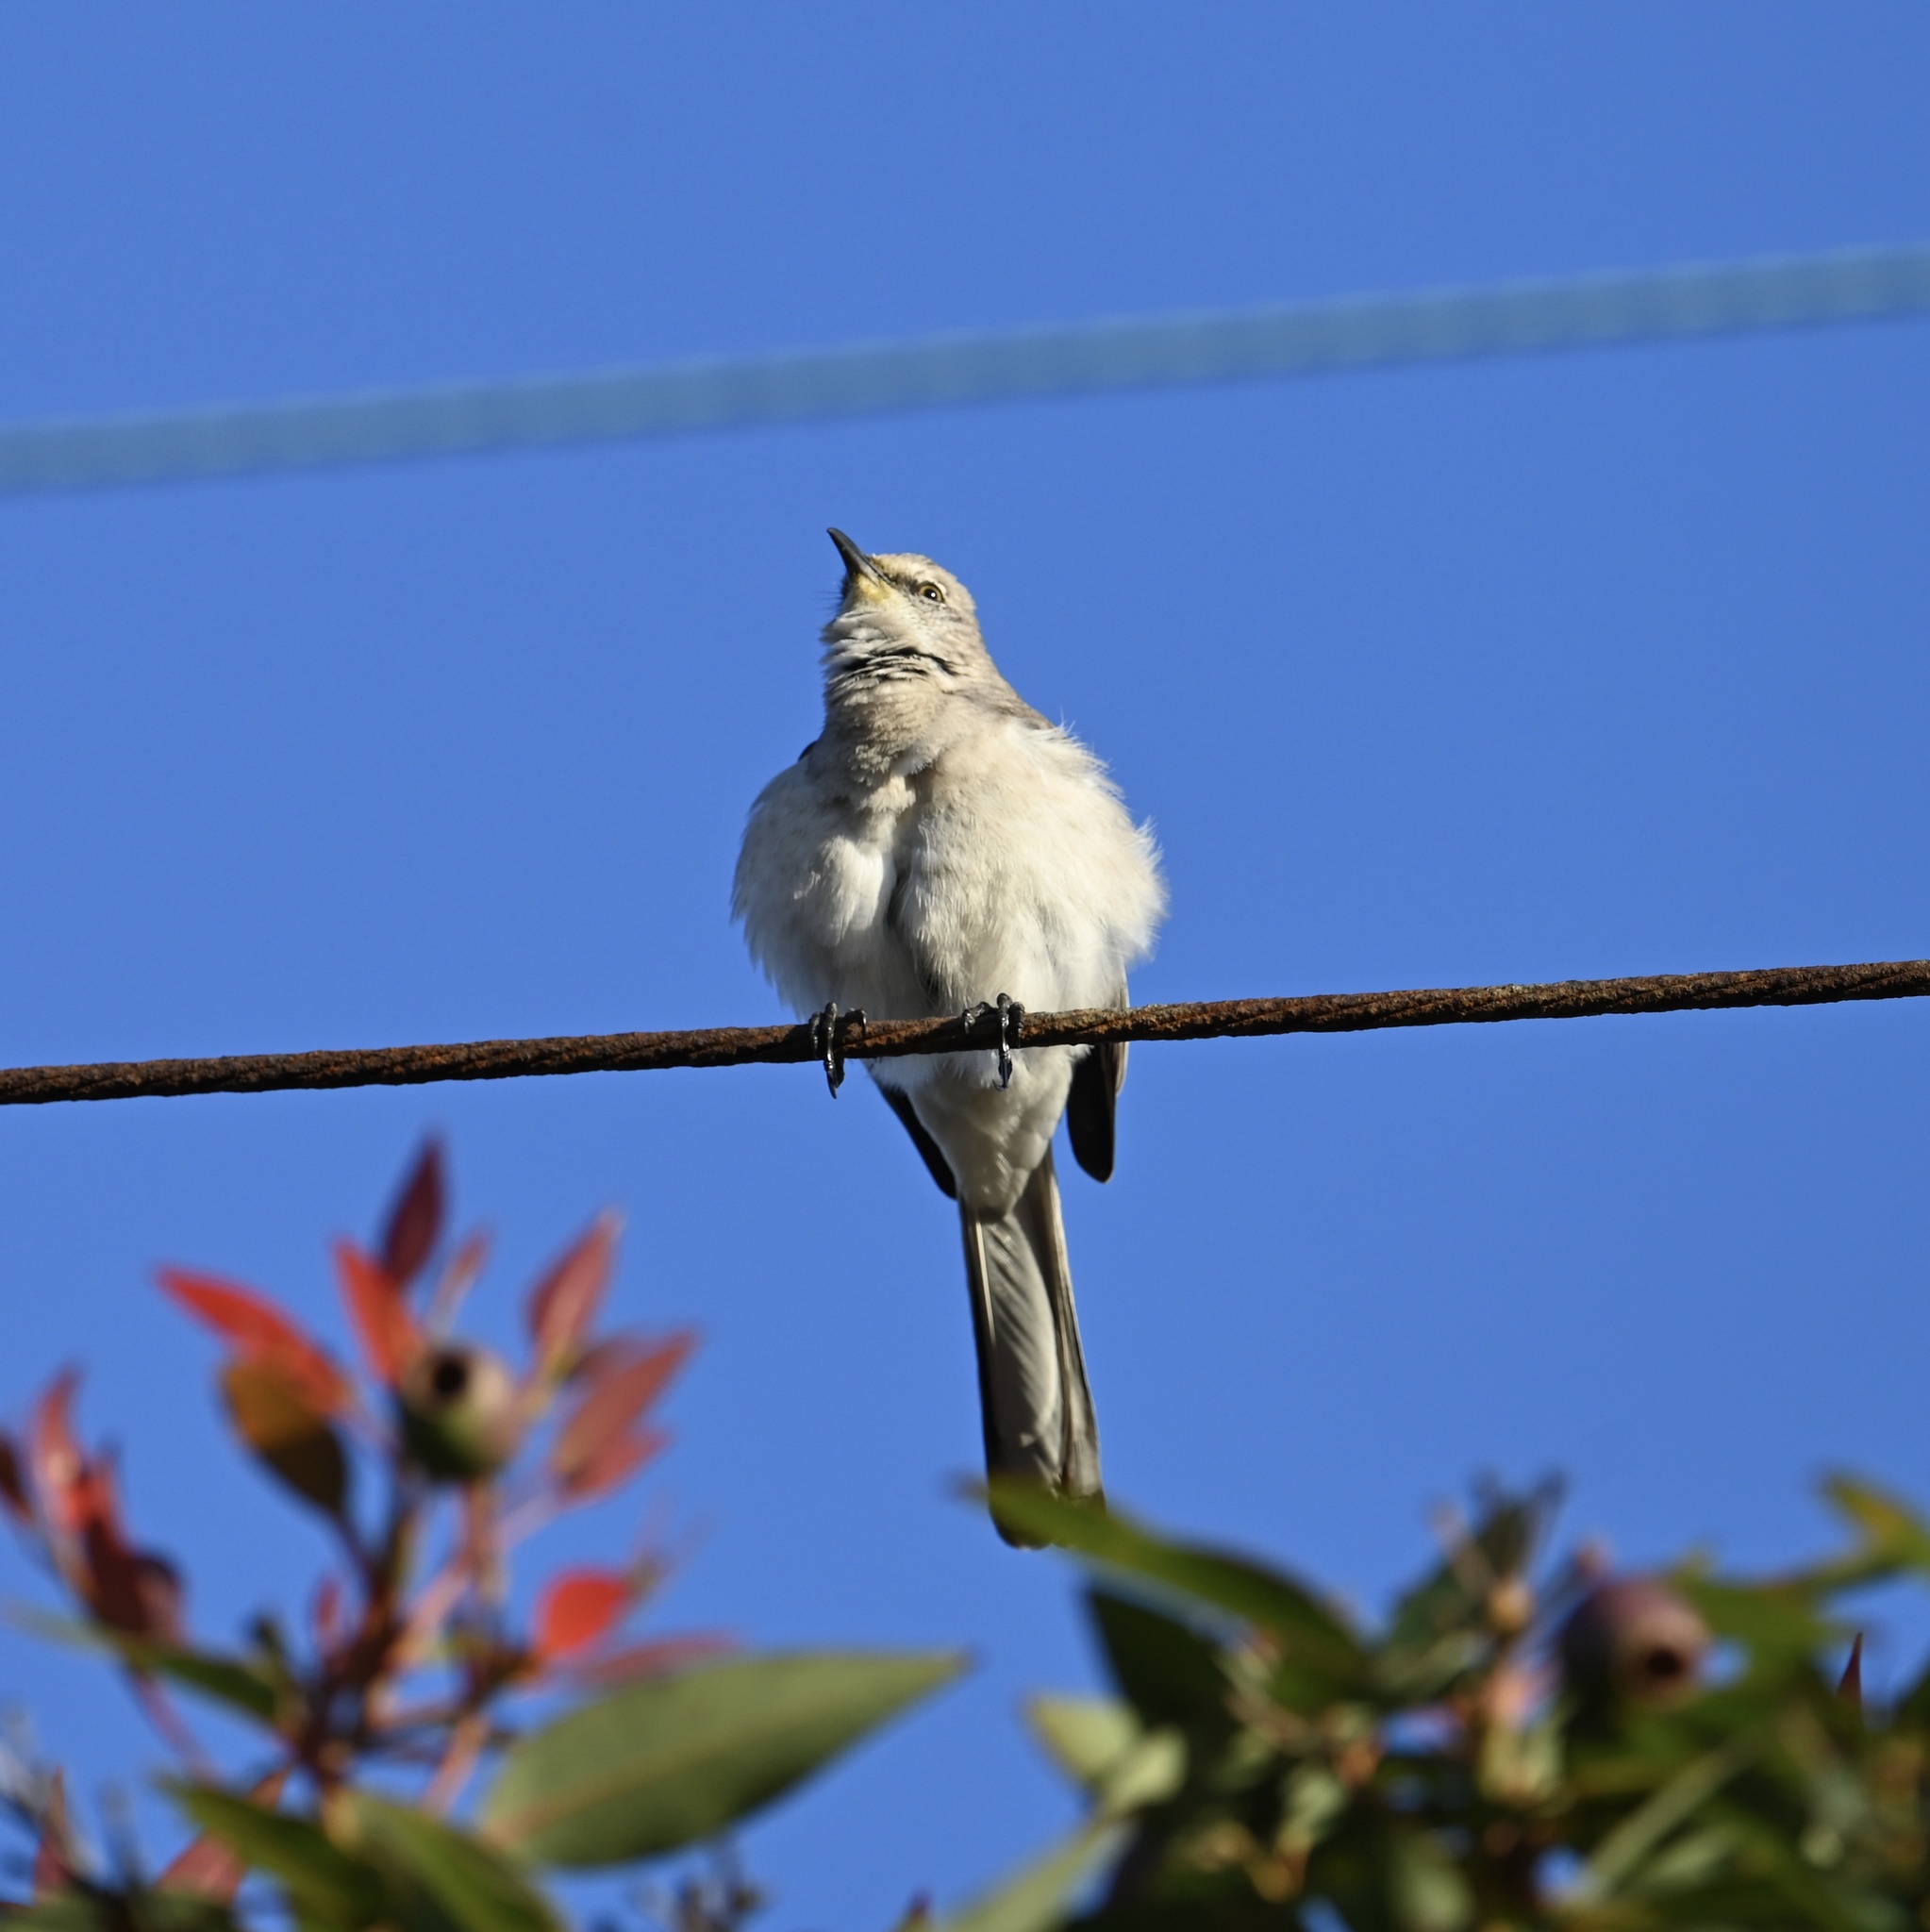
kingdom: Animalia
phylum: Chordata
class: Aves
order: Passeriformes
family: Mimidae
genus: Mimus
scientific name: Mimus polyglottos
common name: Northern mockingbird
